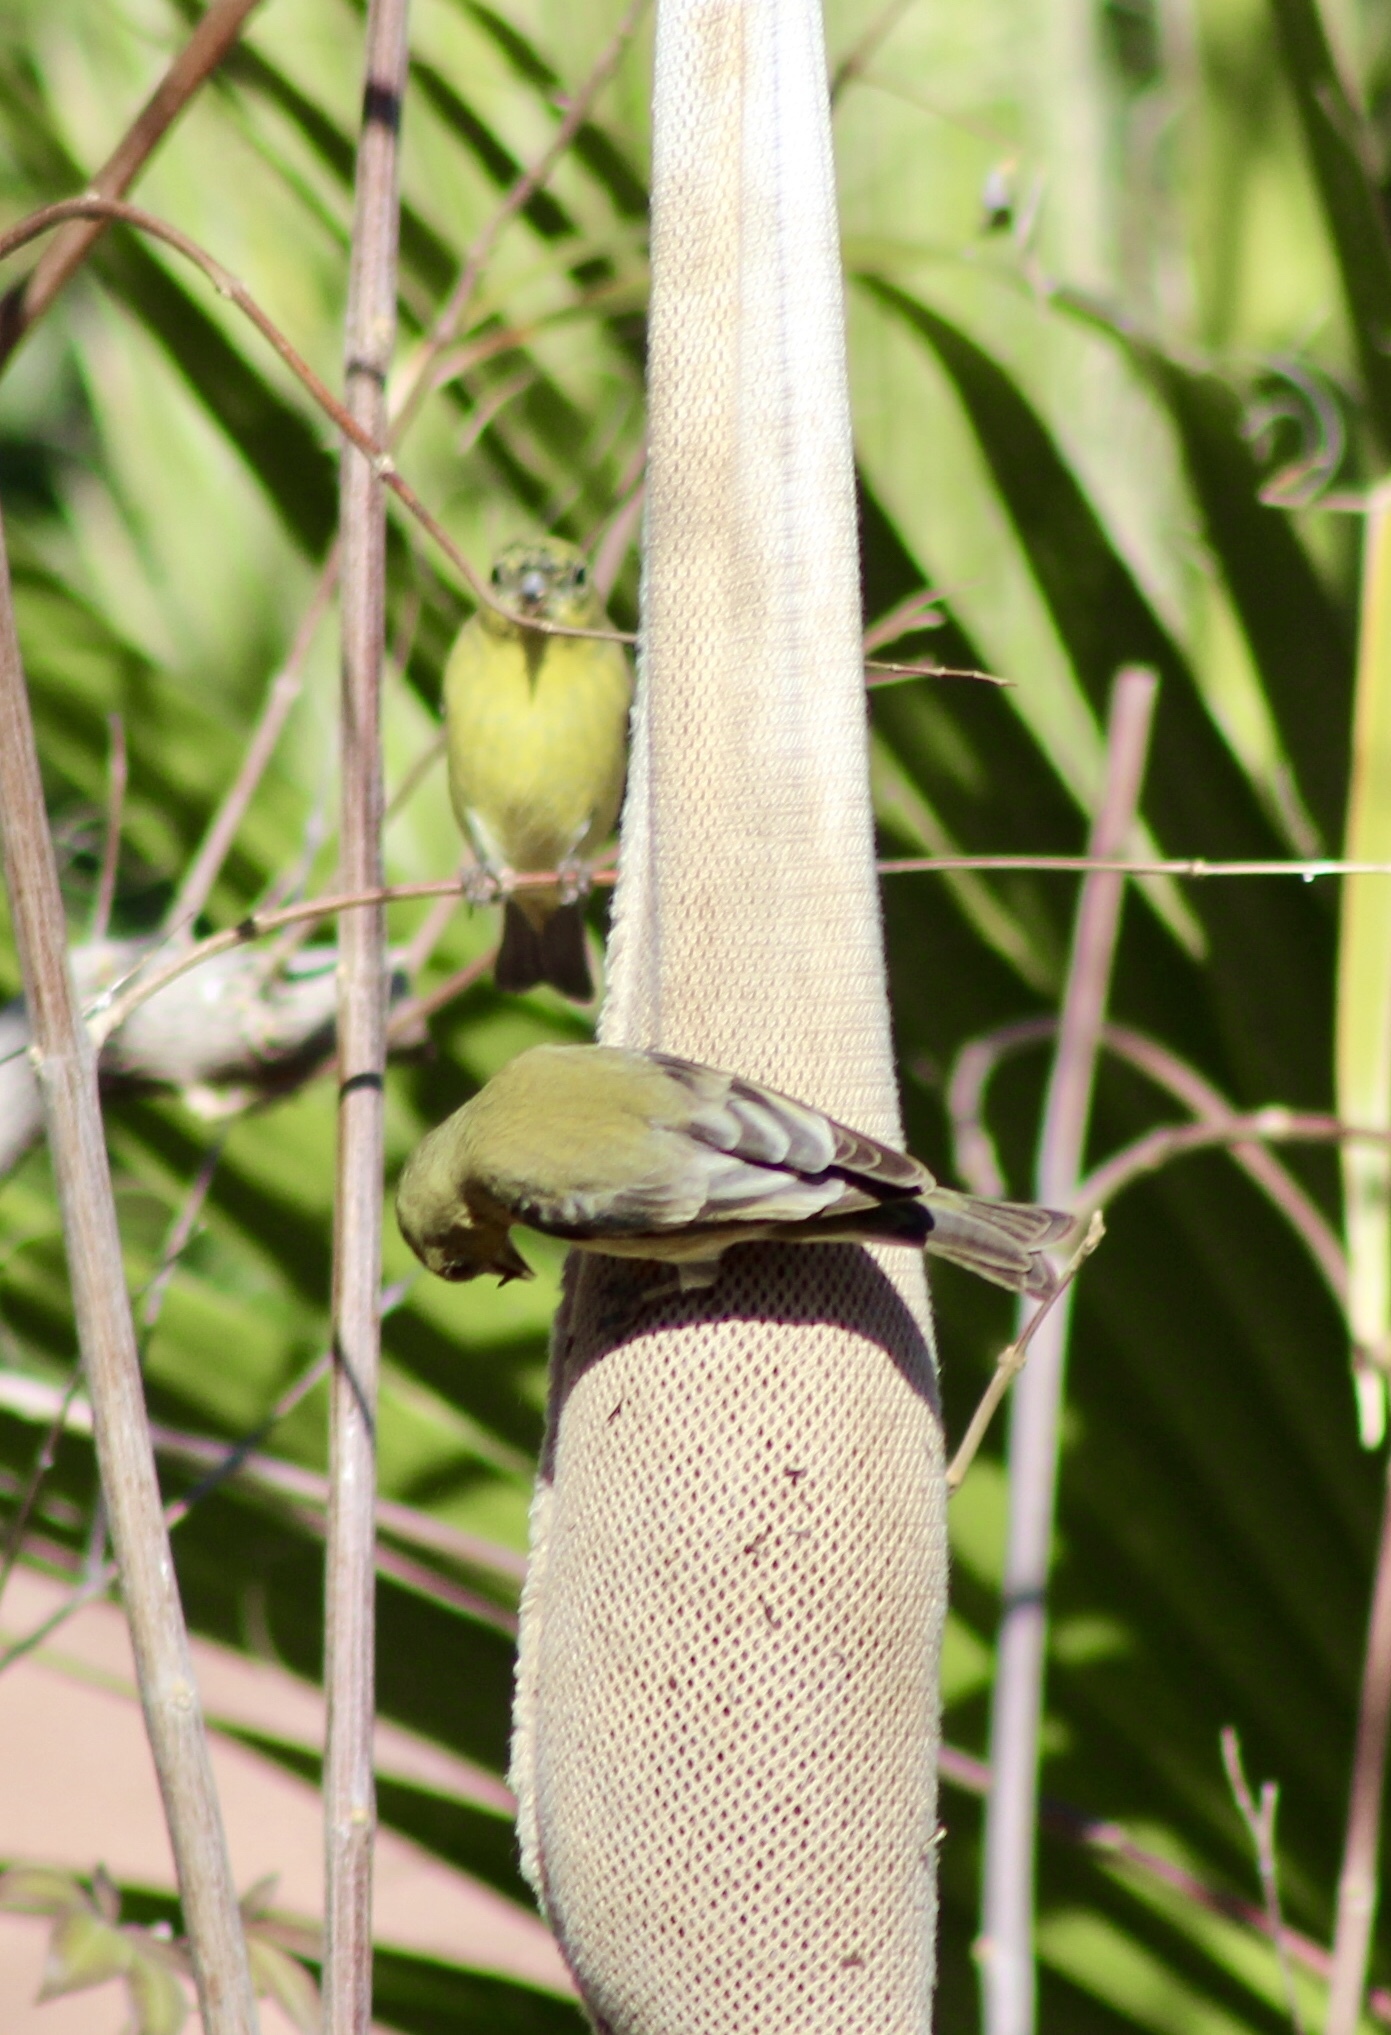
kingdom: Animalia
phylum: Chordata
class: Aves
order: Passeriformes
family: Fringillidae
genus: Spinus
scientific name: Spinus psaltria
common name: Lesser goldfinch
